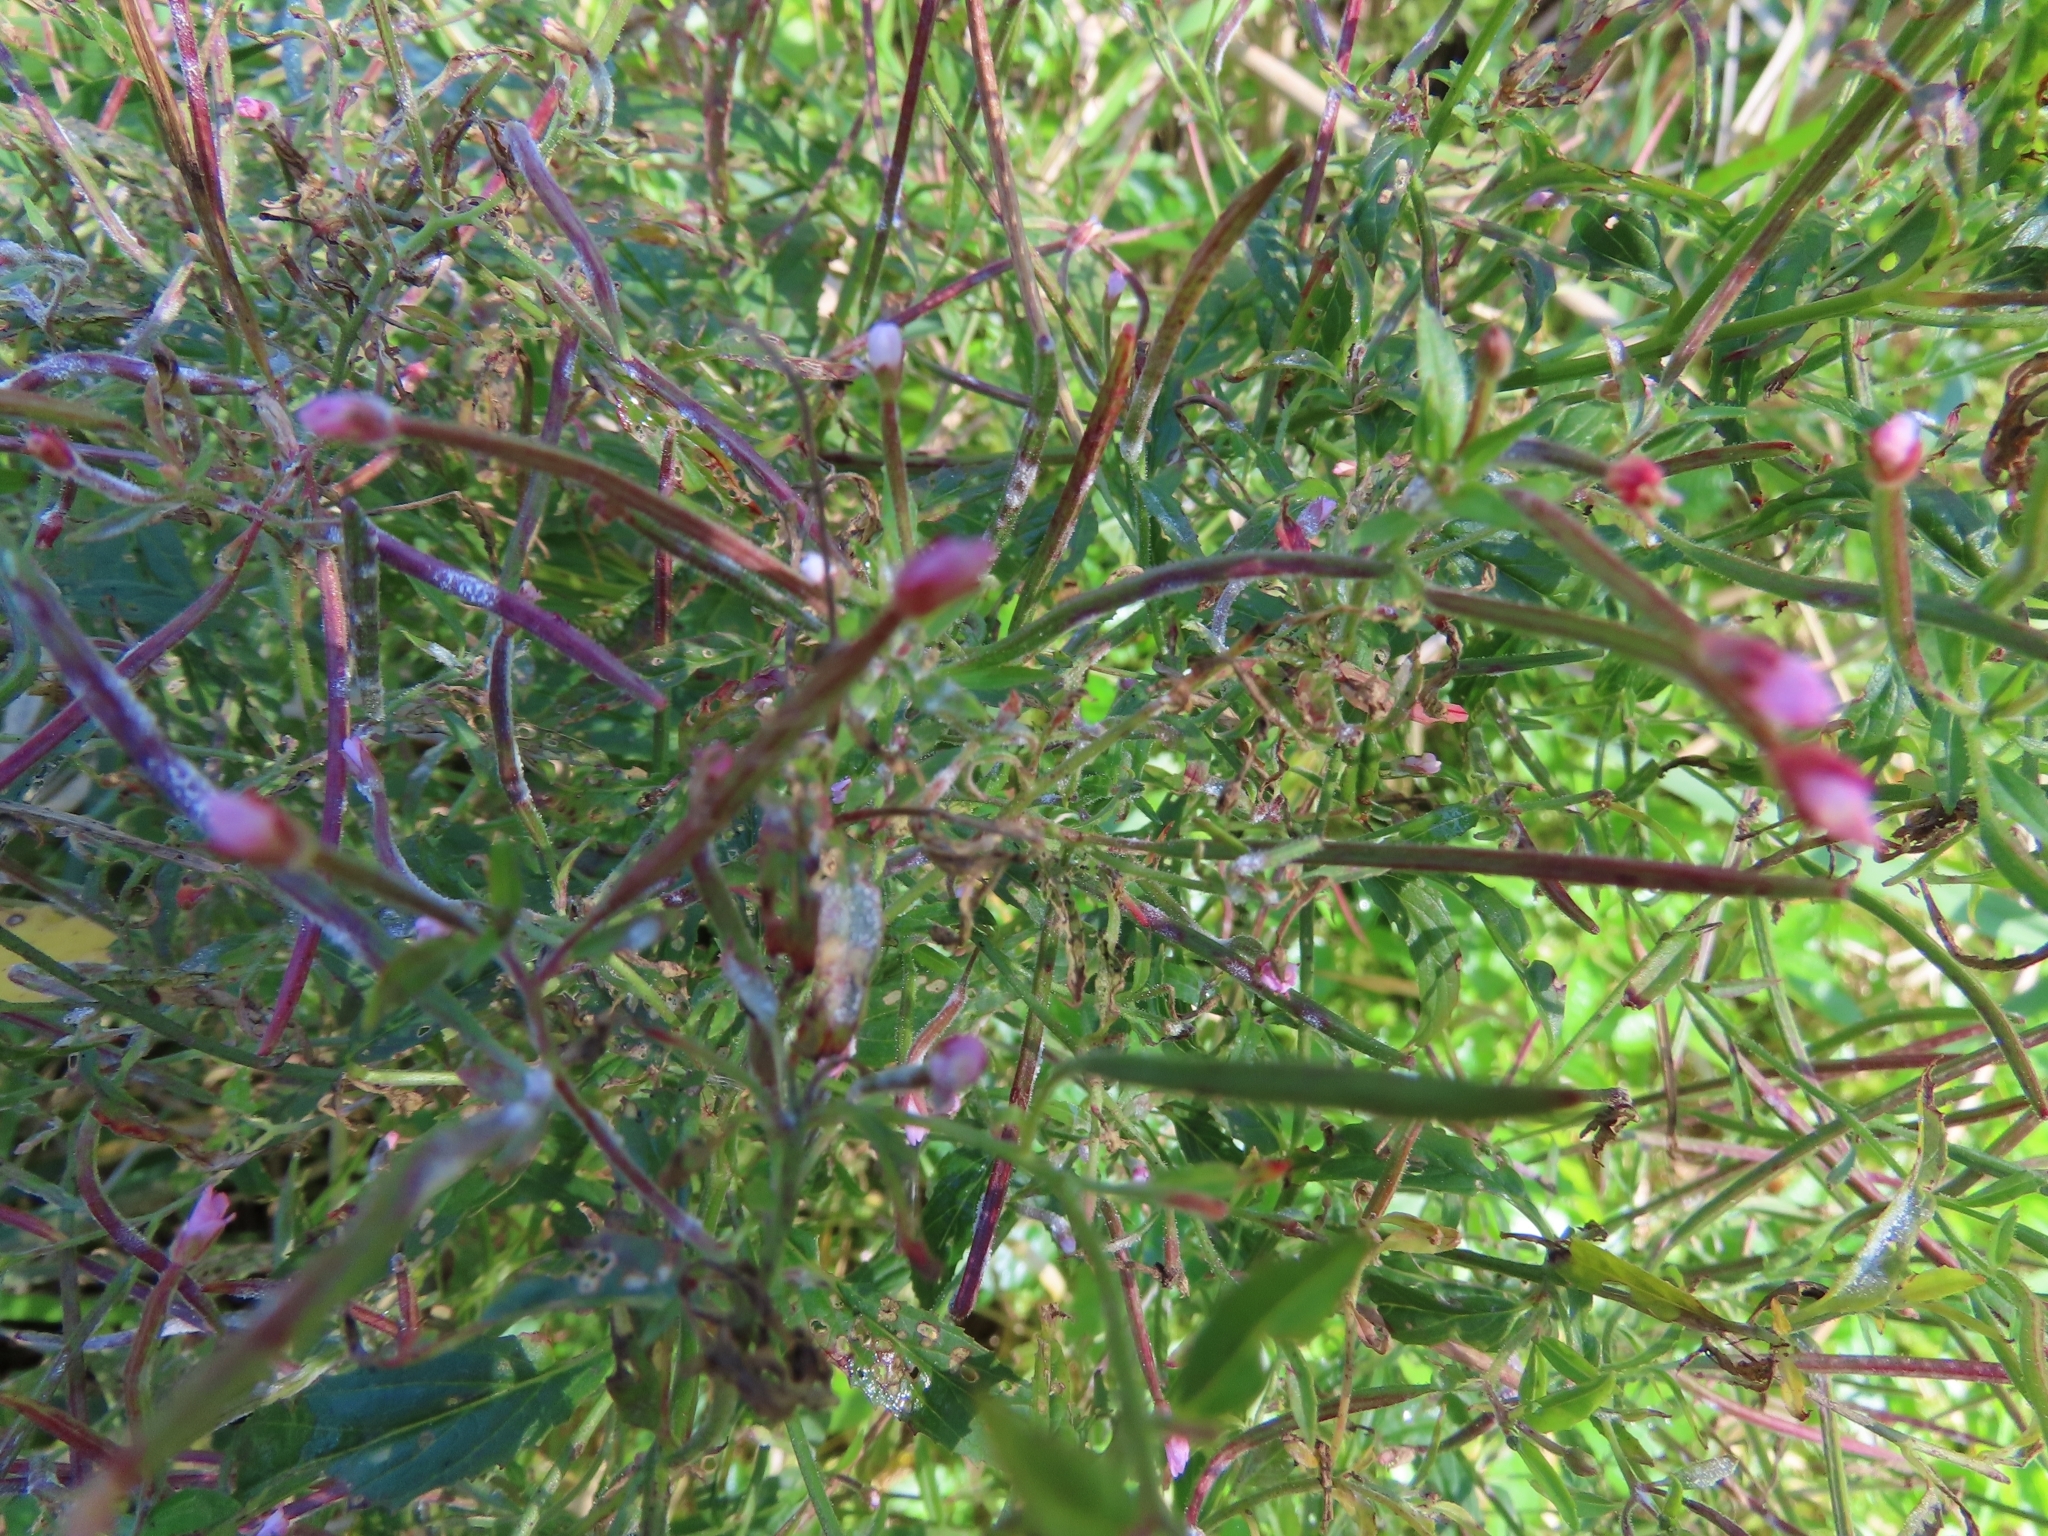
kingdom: Plantae
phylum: Tracheophyta
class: Magnoliopsida
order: Myrtales
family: Onagraceae
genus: Epilobium
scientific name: Epilobium coloratum
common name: Bronze willowherb
